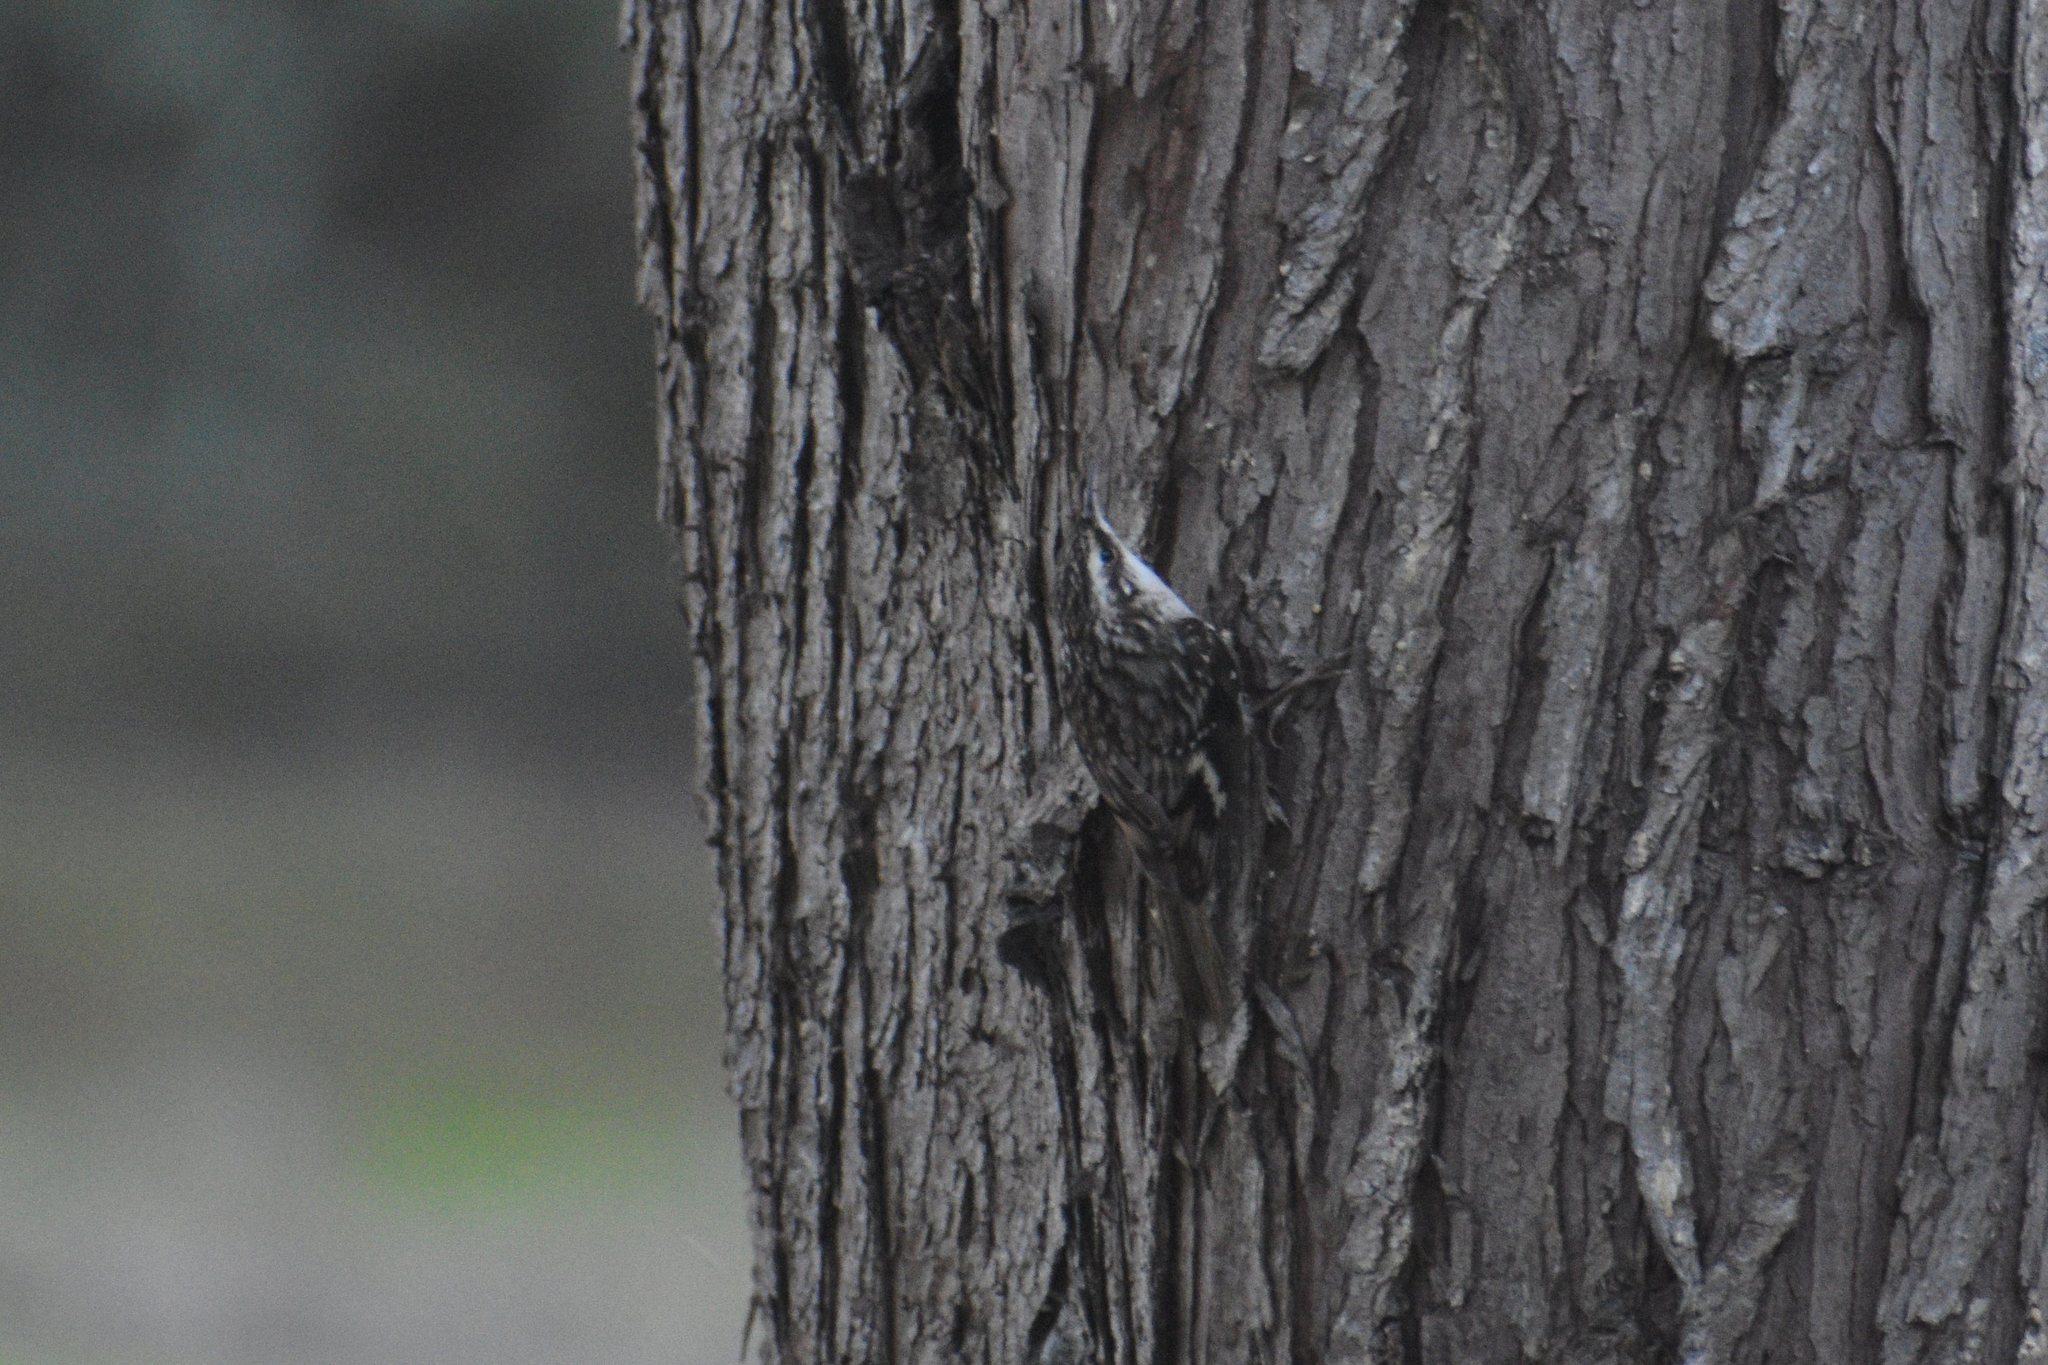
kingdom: Animalia
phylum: Chordata
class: Aves
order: Passeriformes
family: Certhiidae
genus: Certhia
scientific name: Certhia americana
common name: Brown creeper
